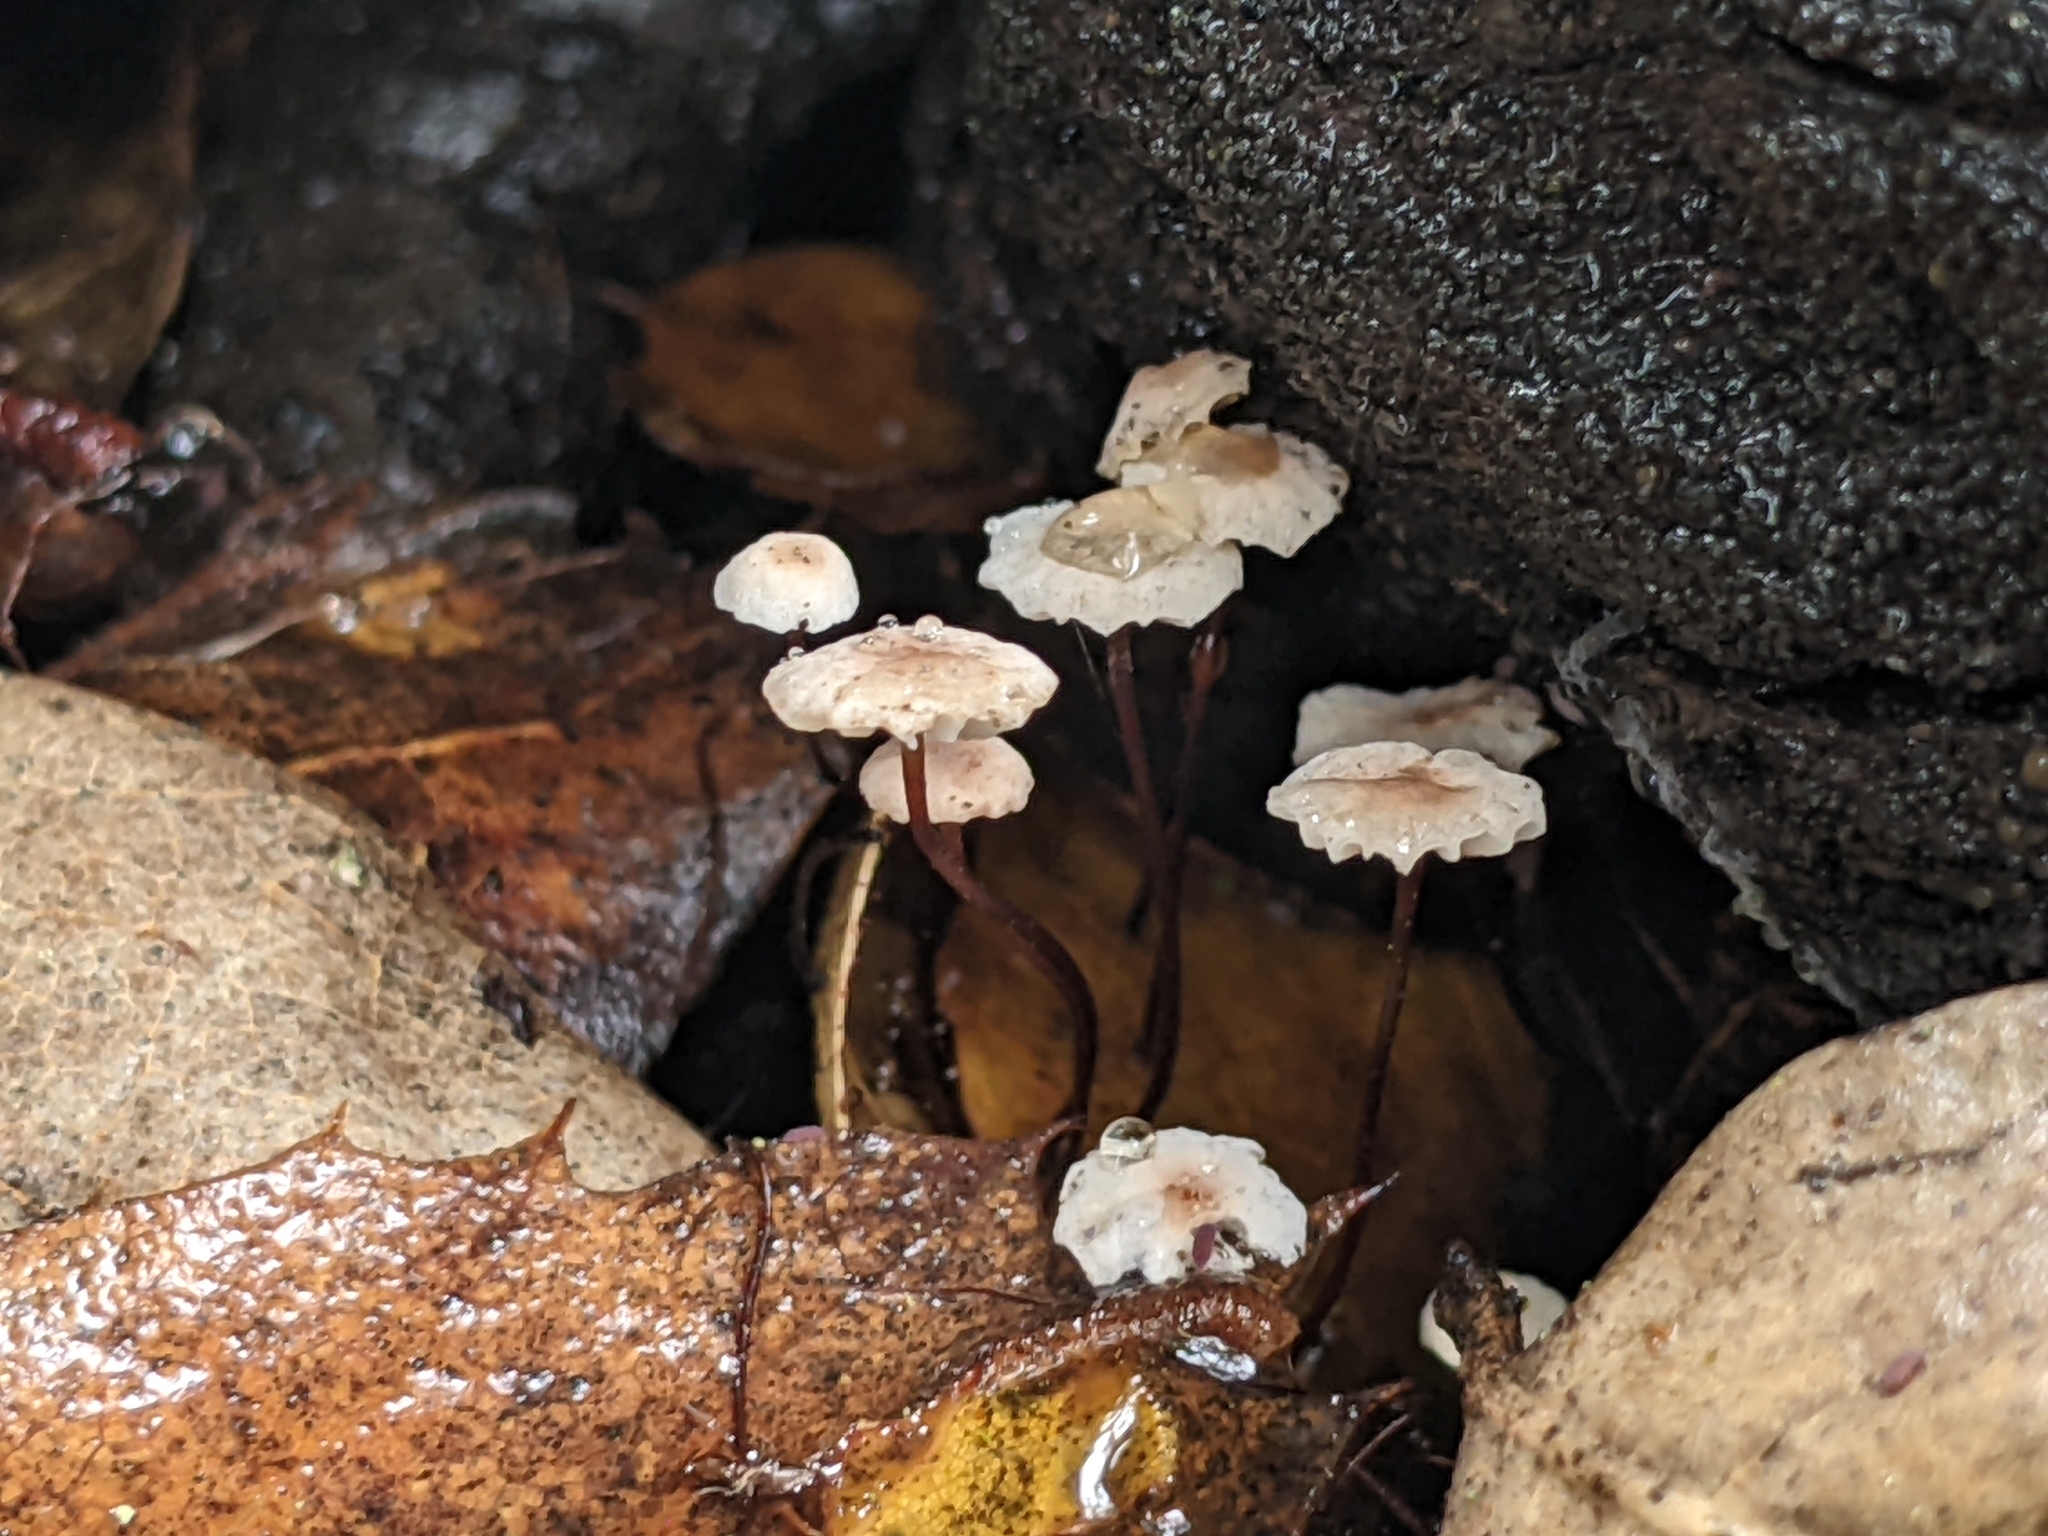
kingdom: Fungi
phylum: Basidiomycota
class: Agaricomycetes
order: Agaricales
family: Omphalotaceae
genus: Collybiopsis
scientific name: Collybiopsis quercophila
